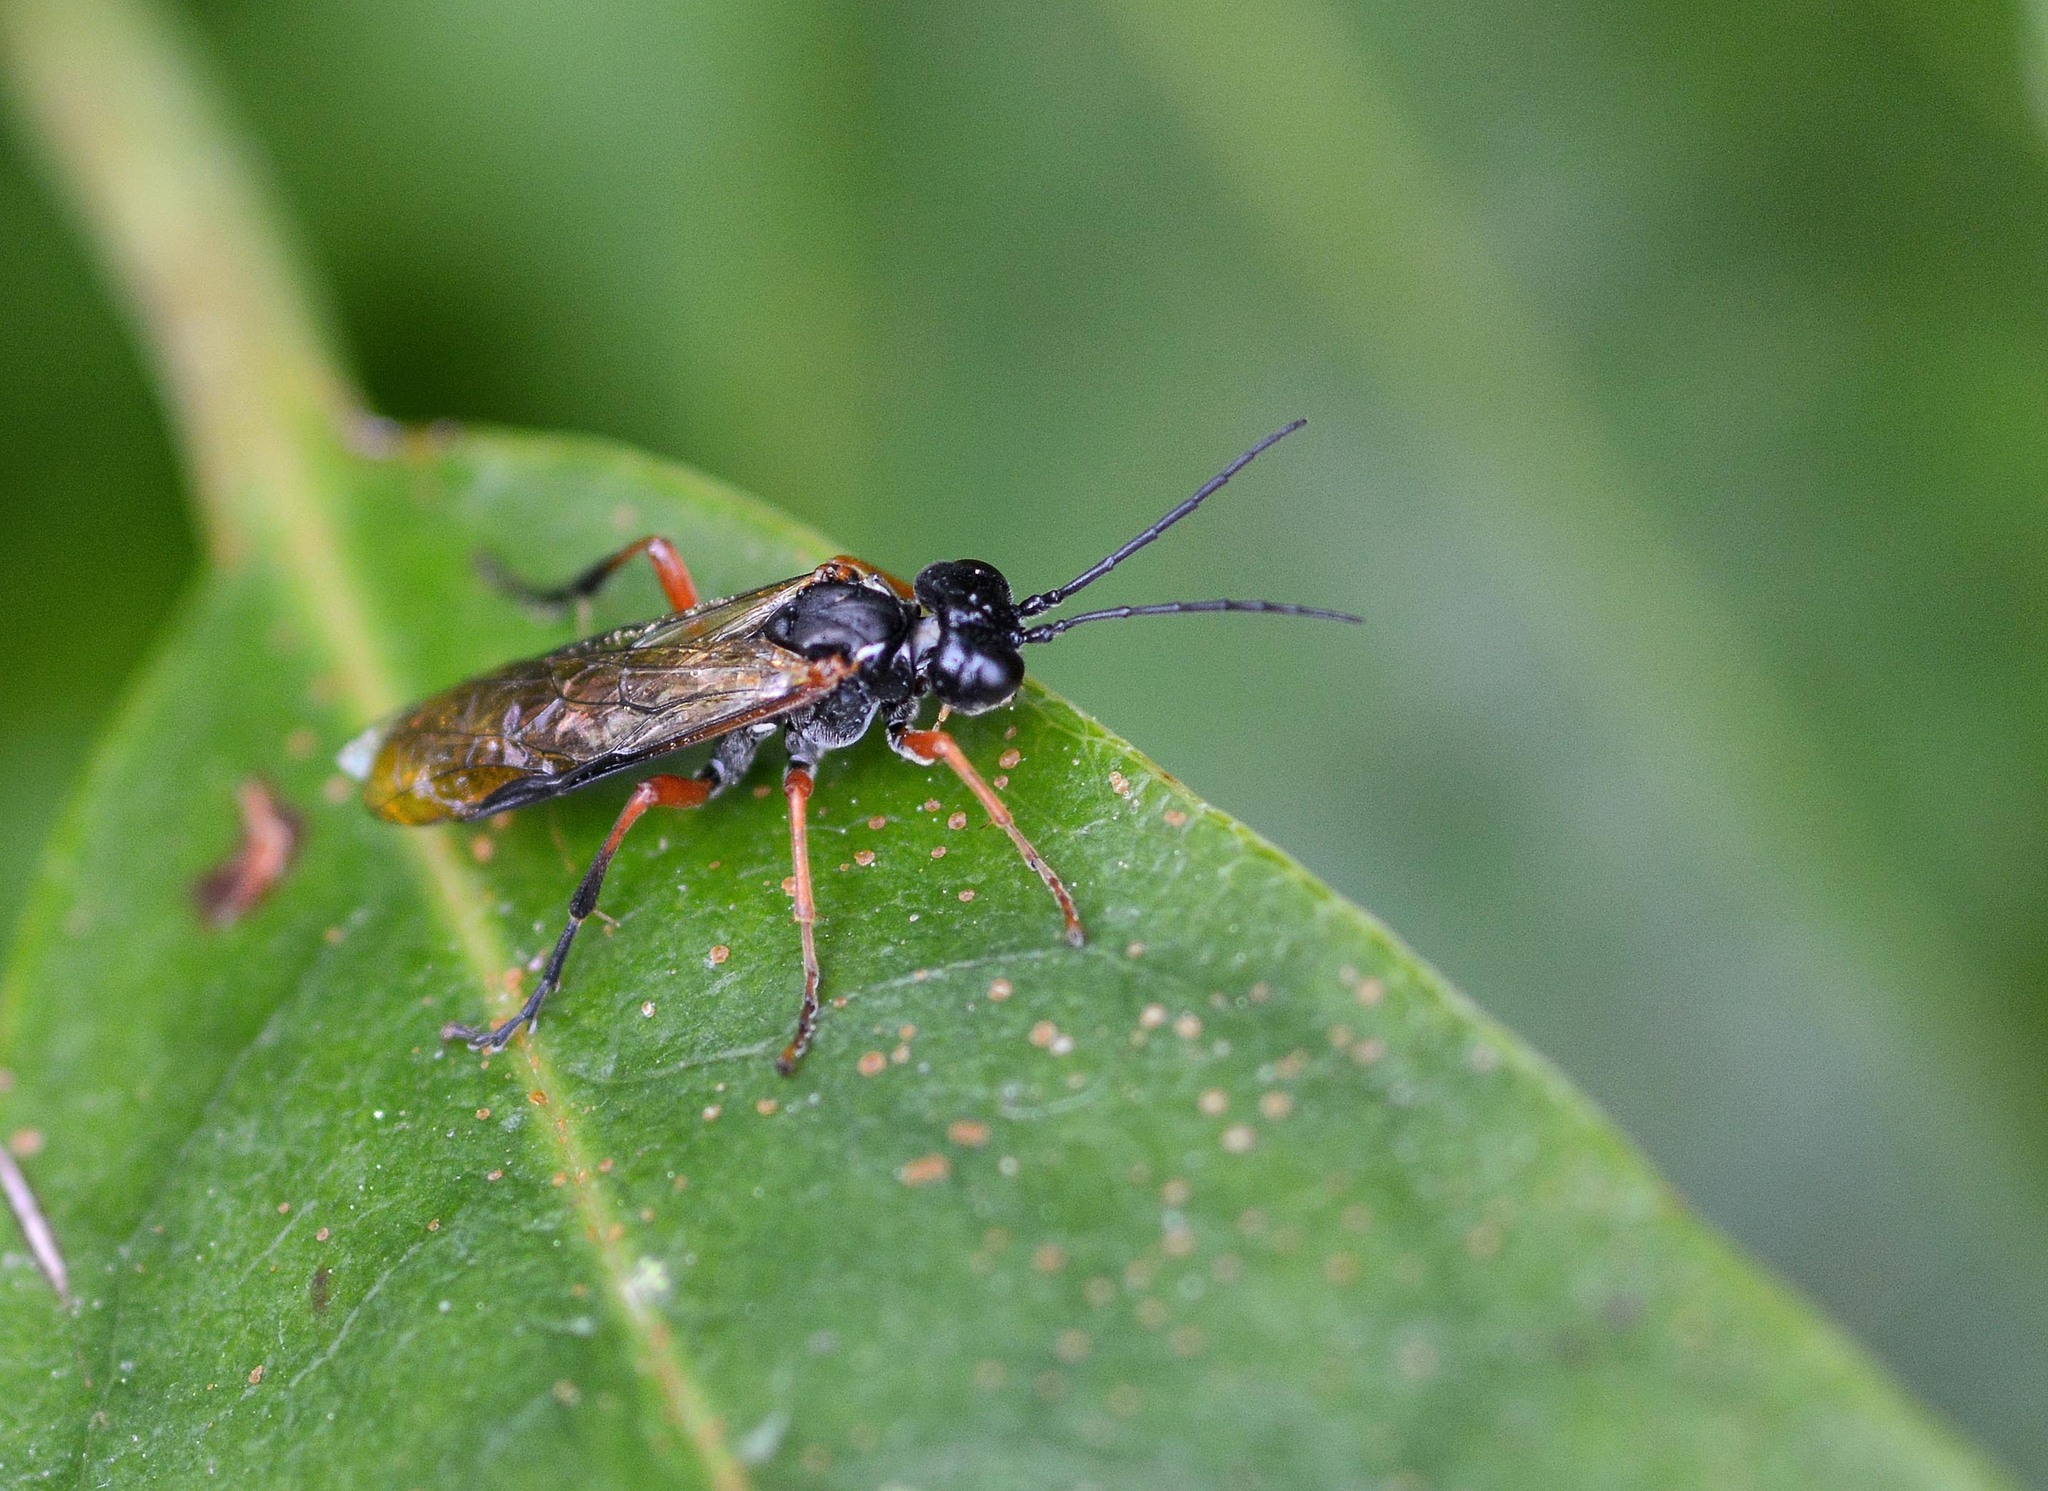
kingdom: Animalia
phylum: Arthropoda
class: Insecta
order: Hymenoptera
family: Tenthredinidae
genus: Tenthredo
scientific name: Tenthredo atra
